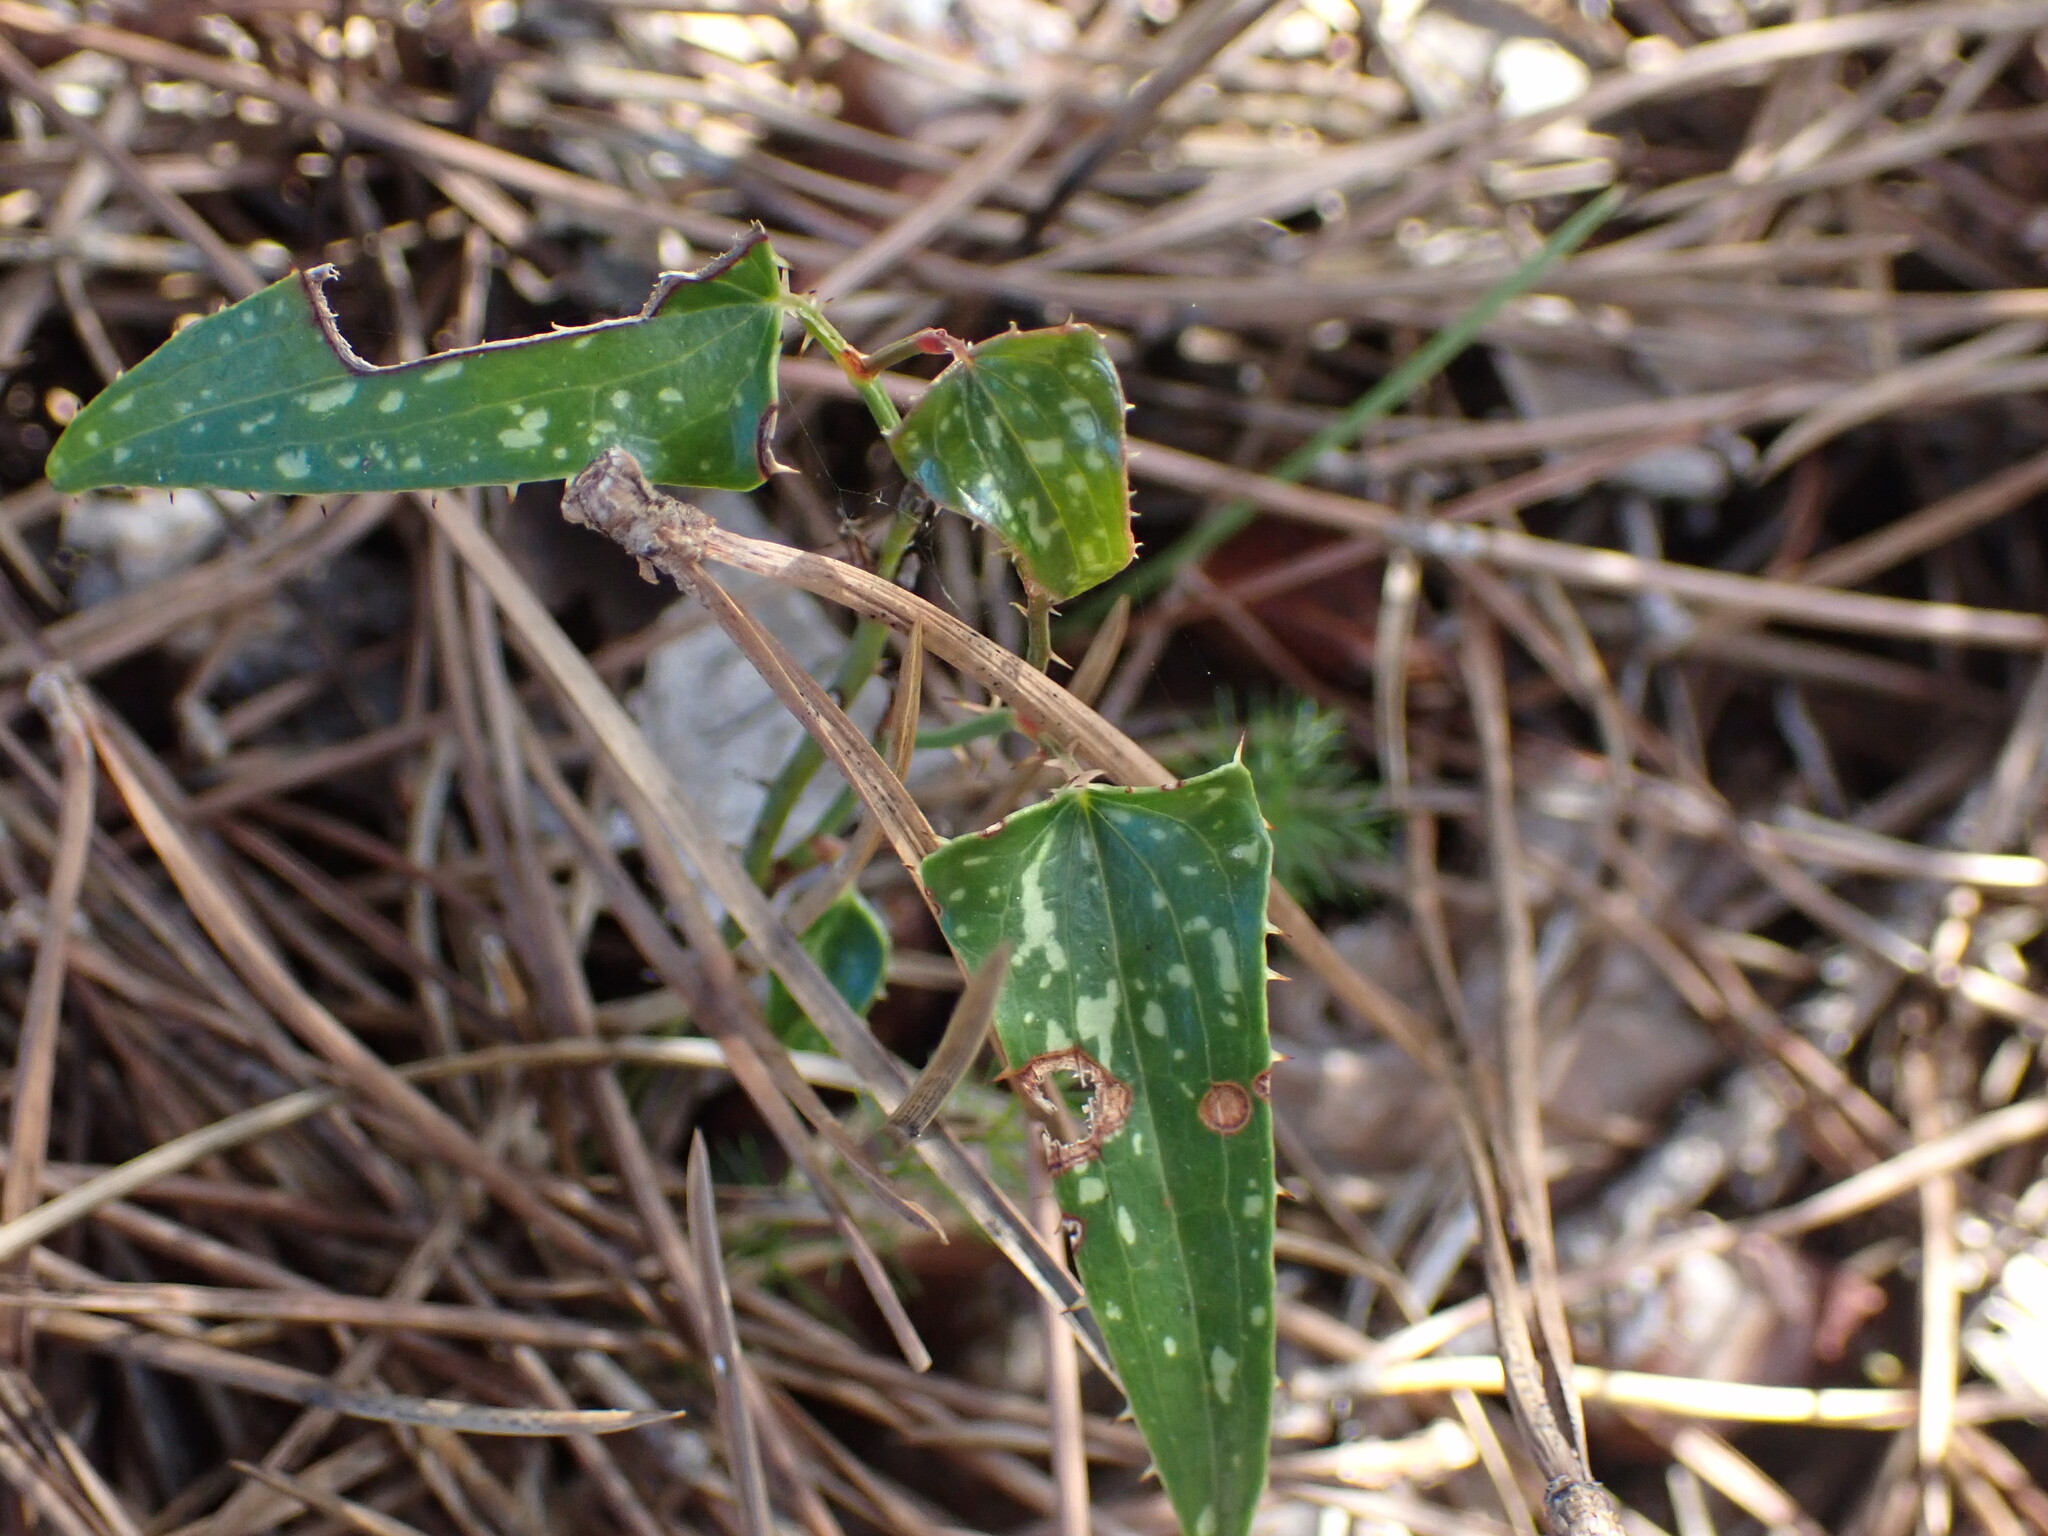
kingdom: Plantae
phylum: Tracheophyta
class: Liliopsida
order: Liliales
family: Smilacaceae
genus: Smilax
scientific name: Smilax aspera
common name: Common smilax
